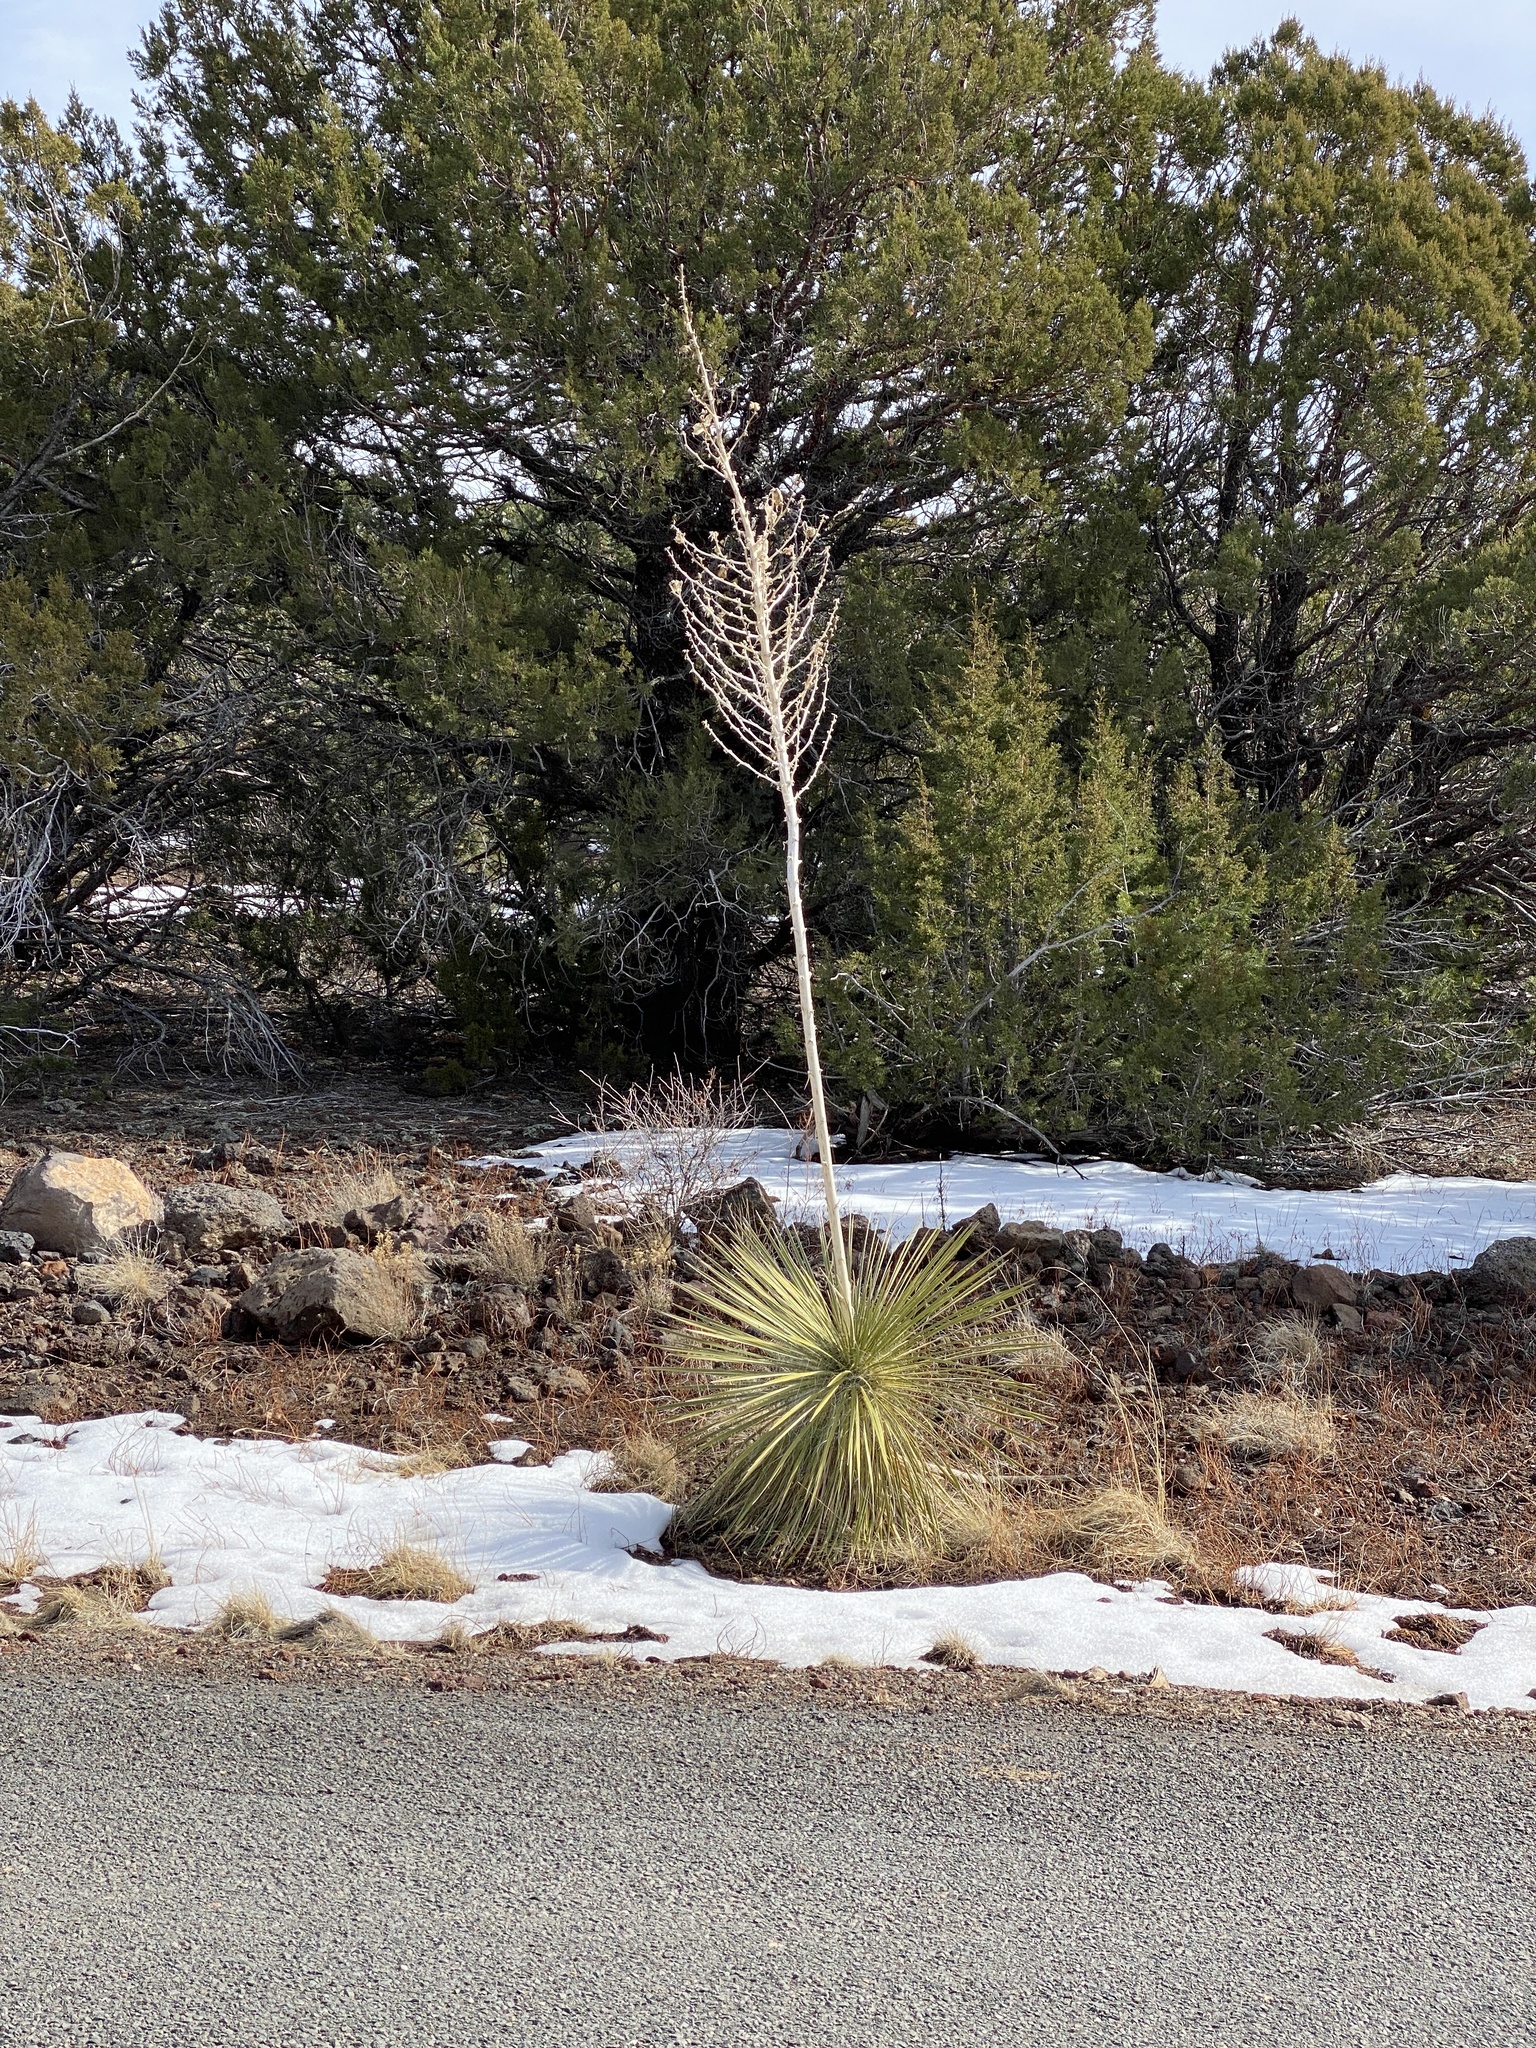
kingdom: Plantae
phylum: Tracheophyta
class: Liliopsida
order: Asparagales
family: Asparagaceae
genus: Yucca
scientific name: Yucca elata
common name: Palmella
